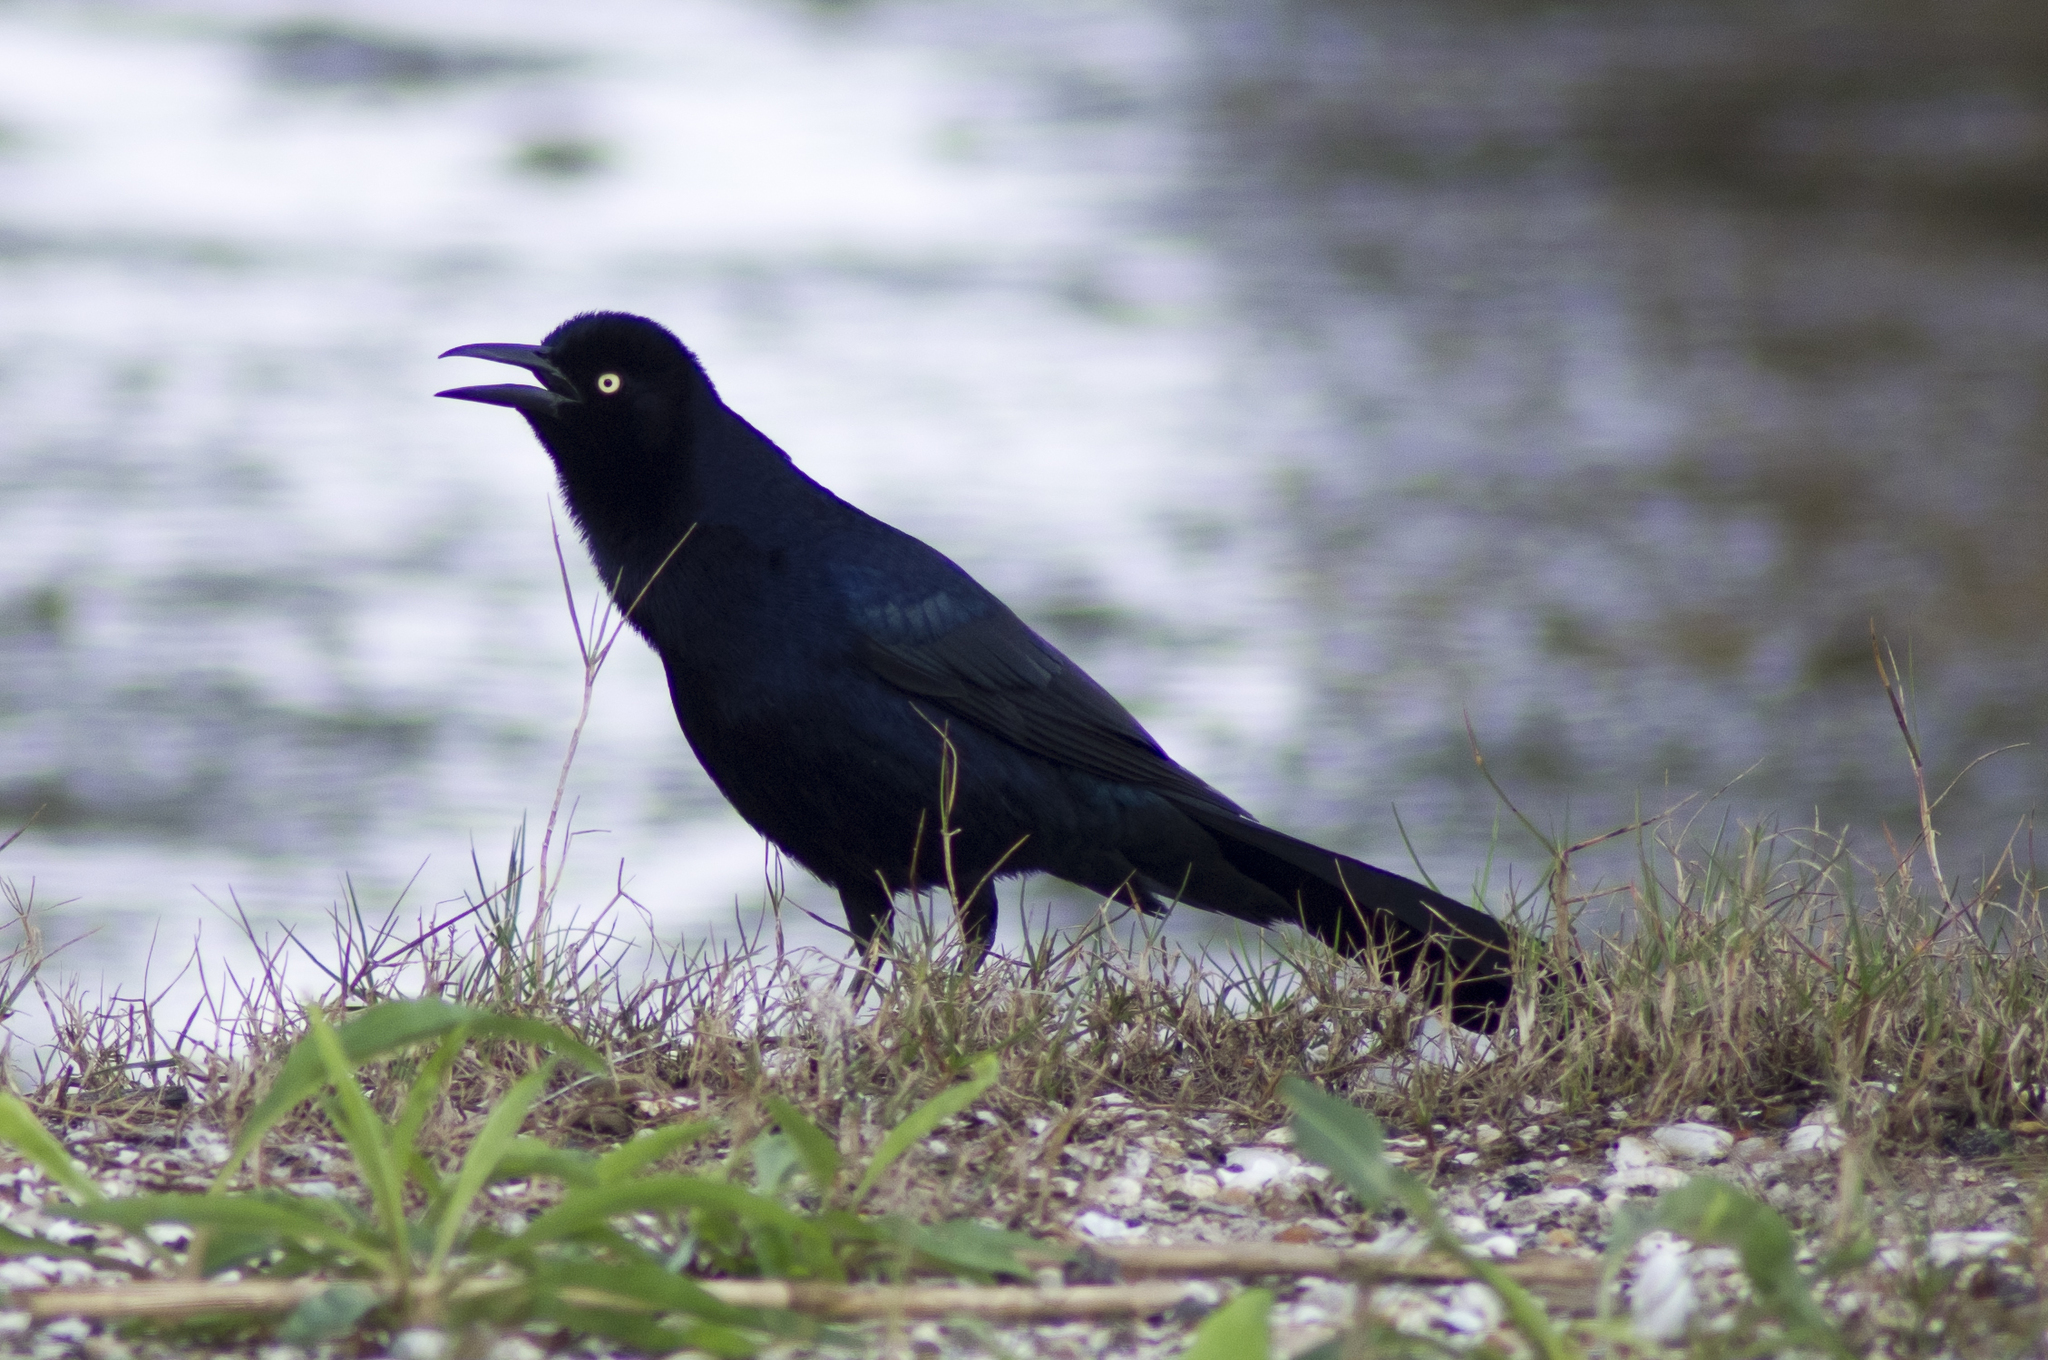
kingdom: Animalia
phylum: Chordata
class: Aves
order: Passeriformes
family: Icteridae
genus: Quiscalus
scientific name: Quiscalus mexicanus
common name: Great-tailed grackle
